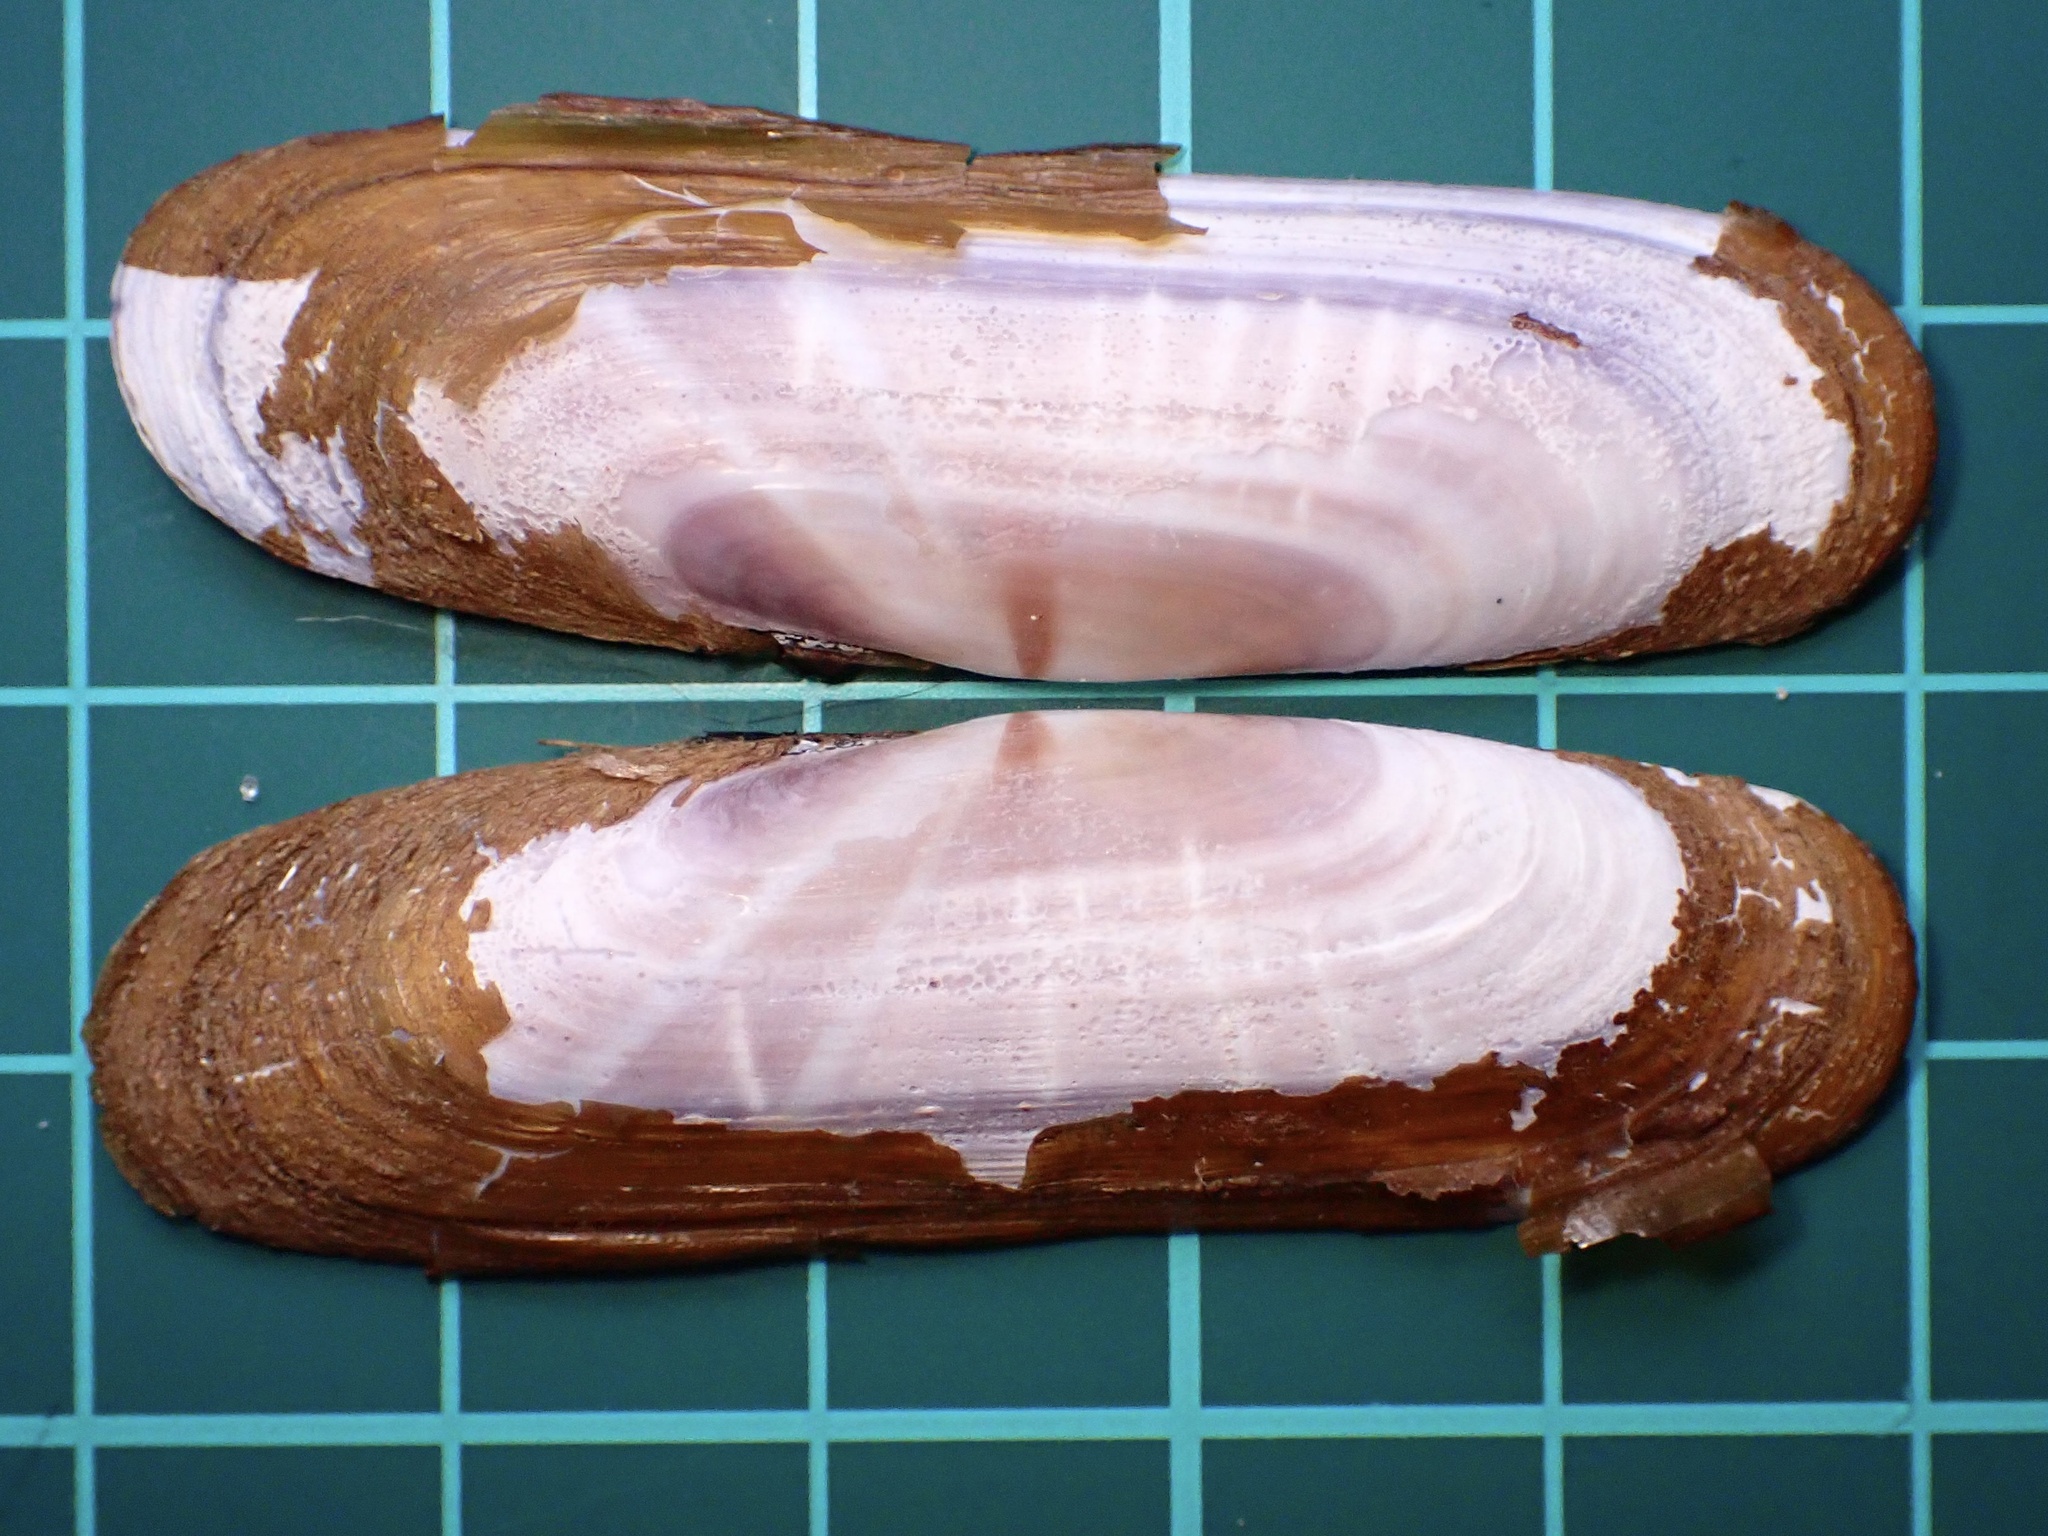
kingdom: Animalia
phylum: Mollusca
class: Bivalvia
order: Cardiida
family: Solecurtidae
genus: Tagelus
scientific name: Tagelus subteres
